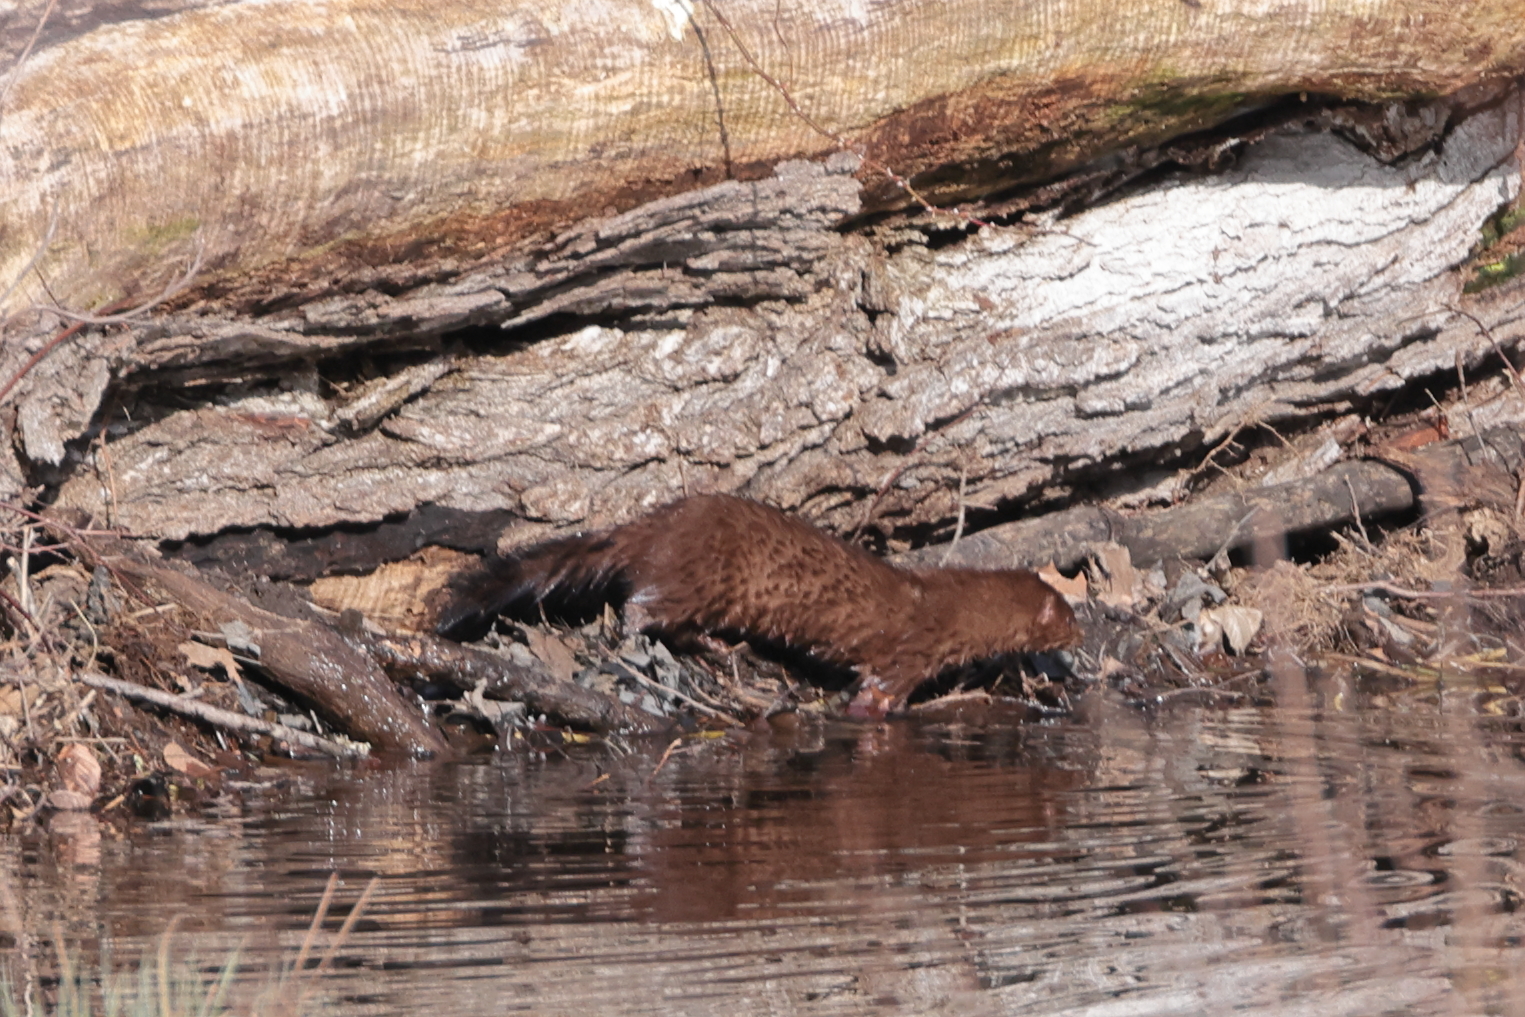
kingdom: Animalia
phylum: Chordata
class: Mammalia
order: Carnivora
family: Mustelidae
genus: Mustela
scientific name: Mustela
